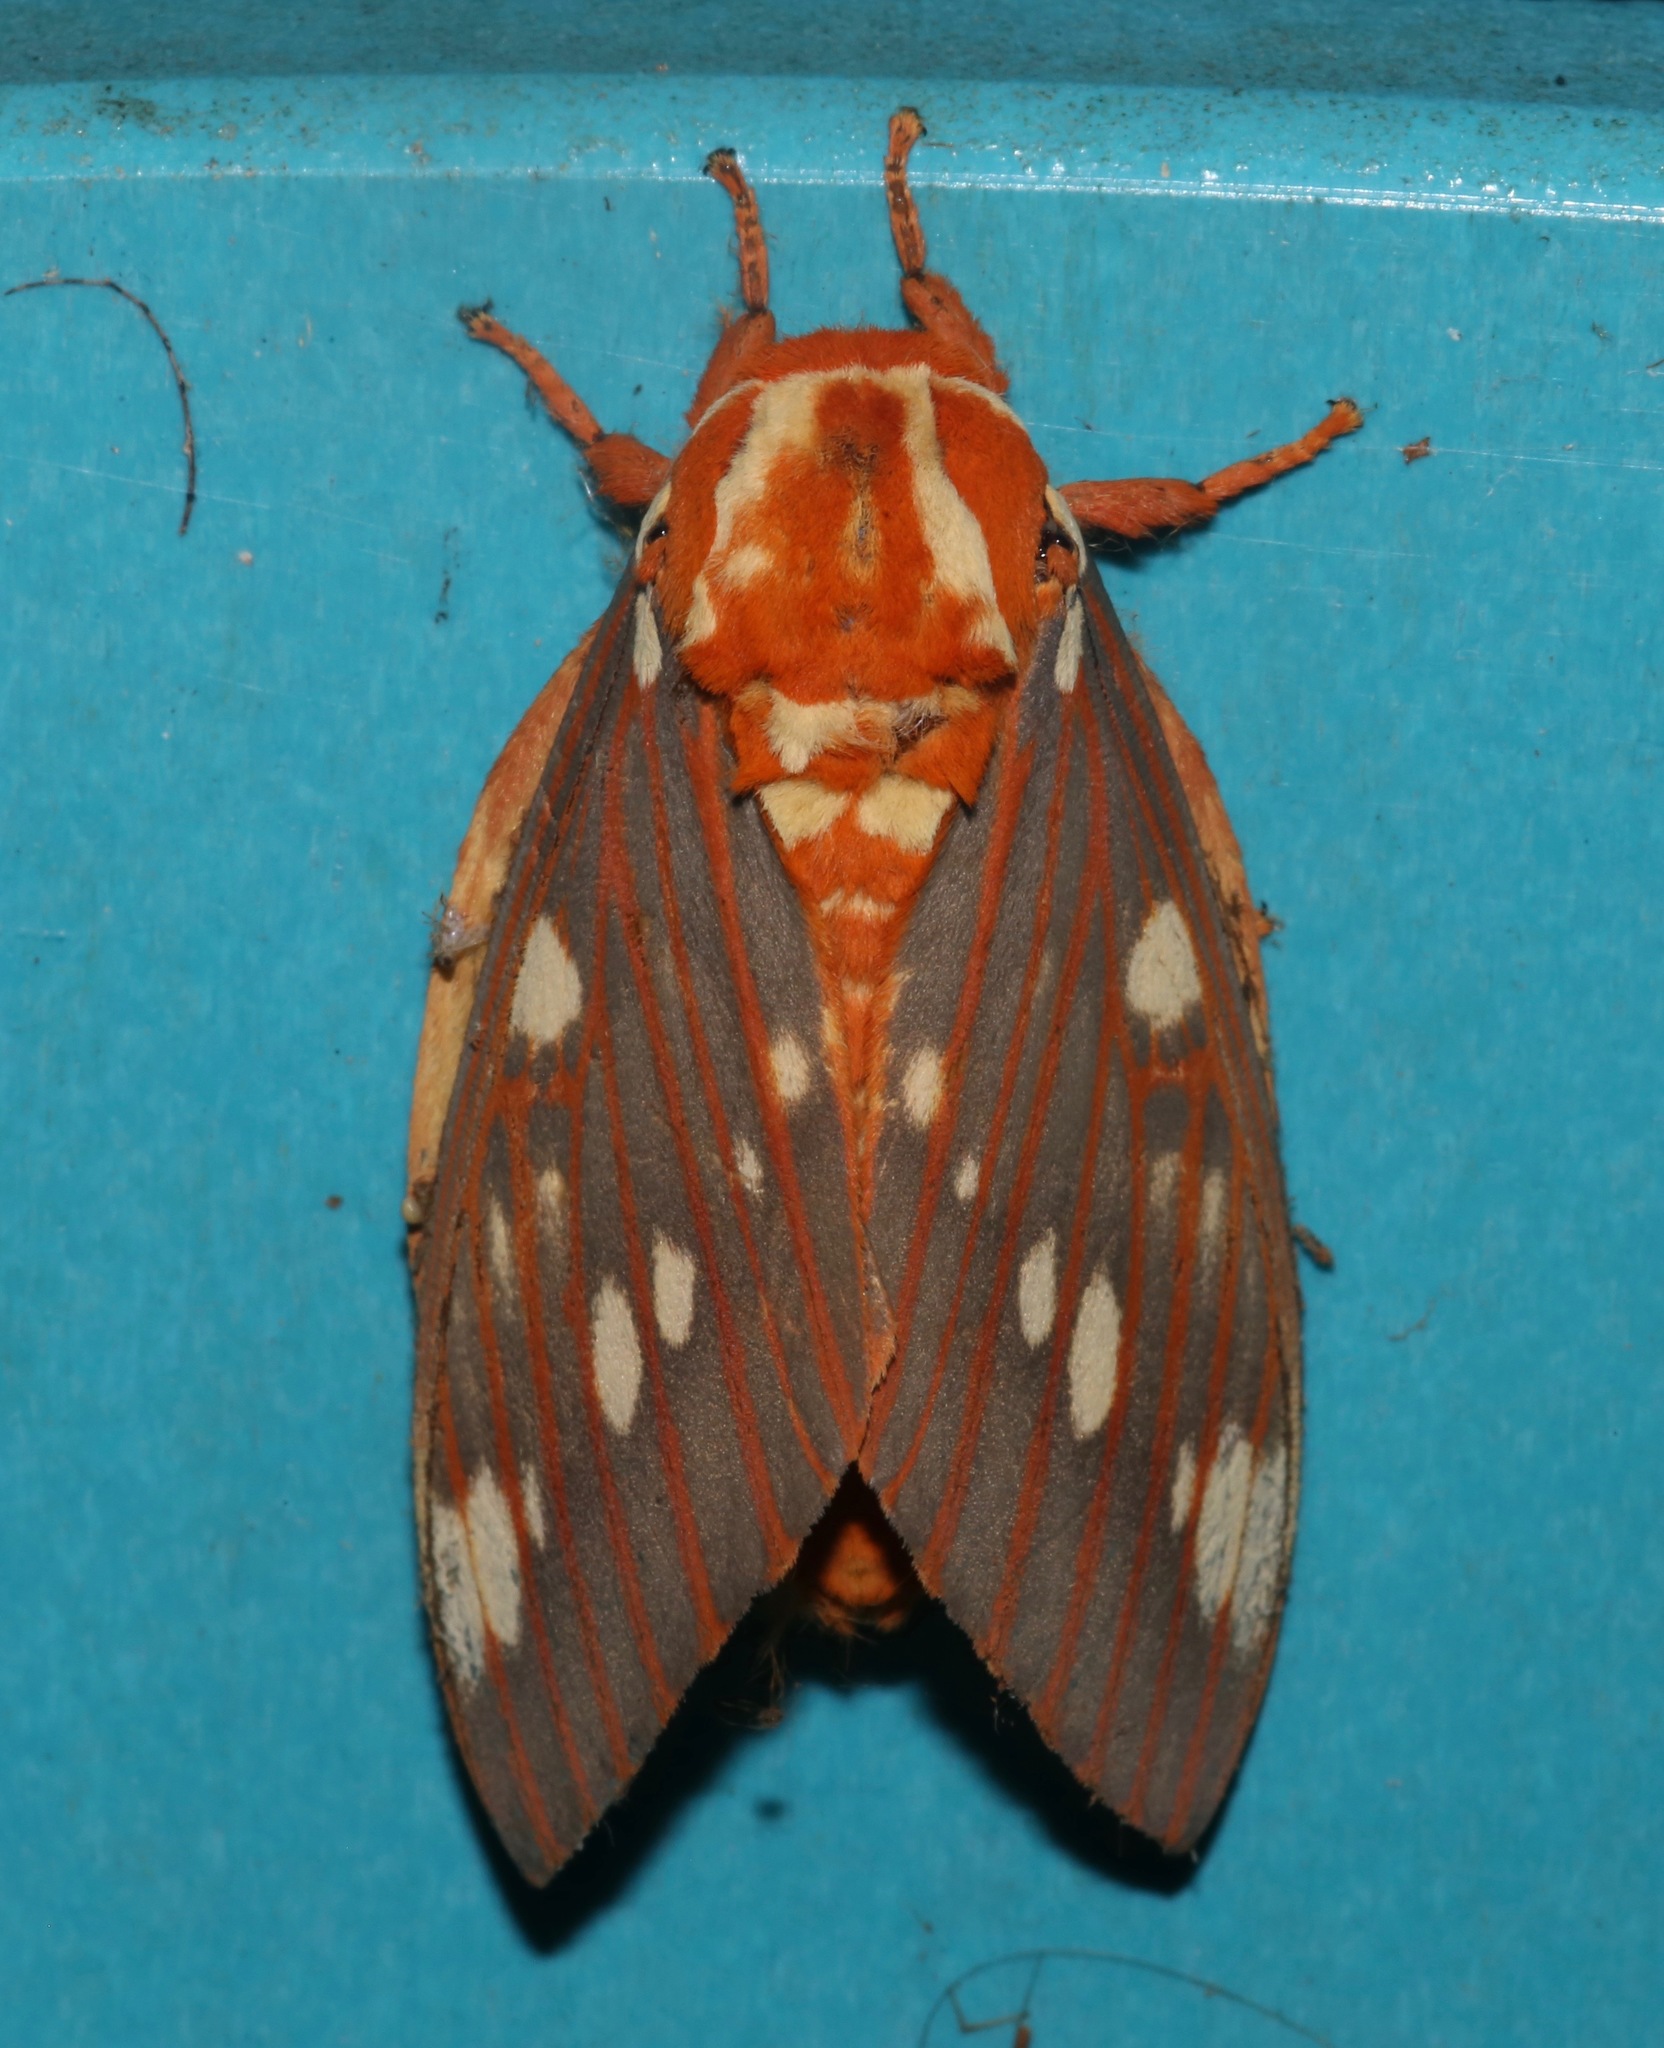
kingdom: Animalia
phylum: Arthropoda
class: Insecta
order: Lepidoptera
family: Saturniidae
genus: Citheronia
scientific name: Citheronia regalis
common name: Hickory horned devil
